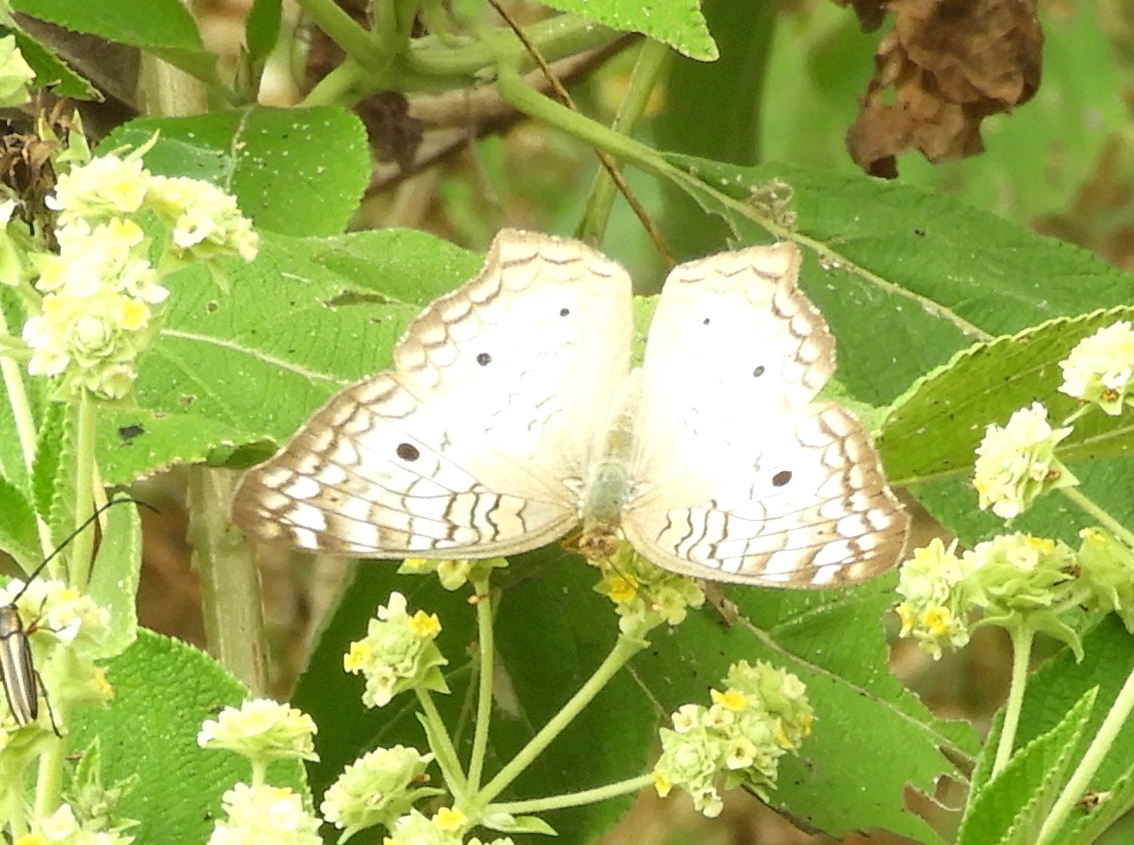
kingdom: Animalia
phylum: Arthropoda
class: Insecta
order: Lepidoptera
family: Nymphalidae
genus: Anartia
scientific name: Anartia jatrophae
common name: White peacock
